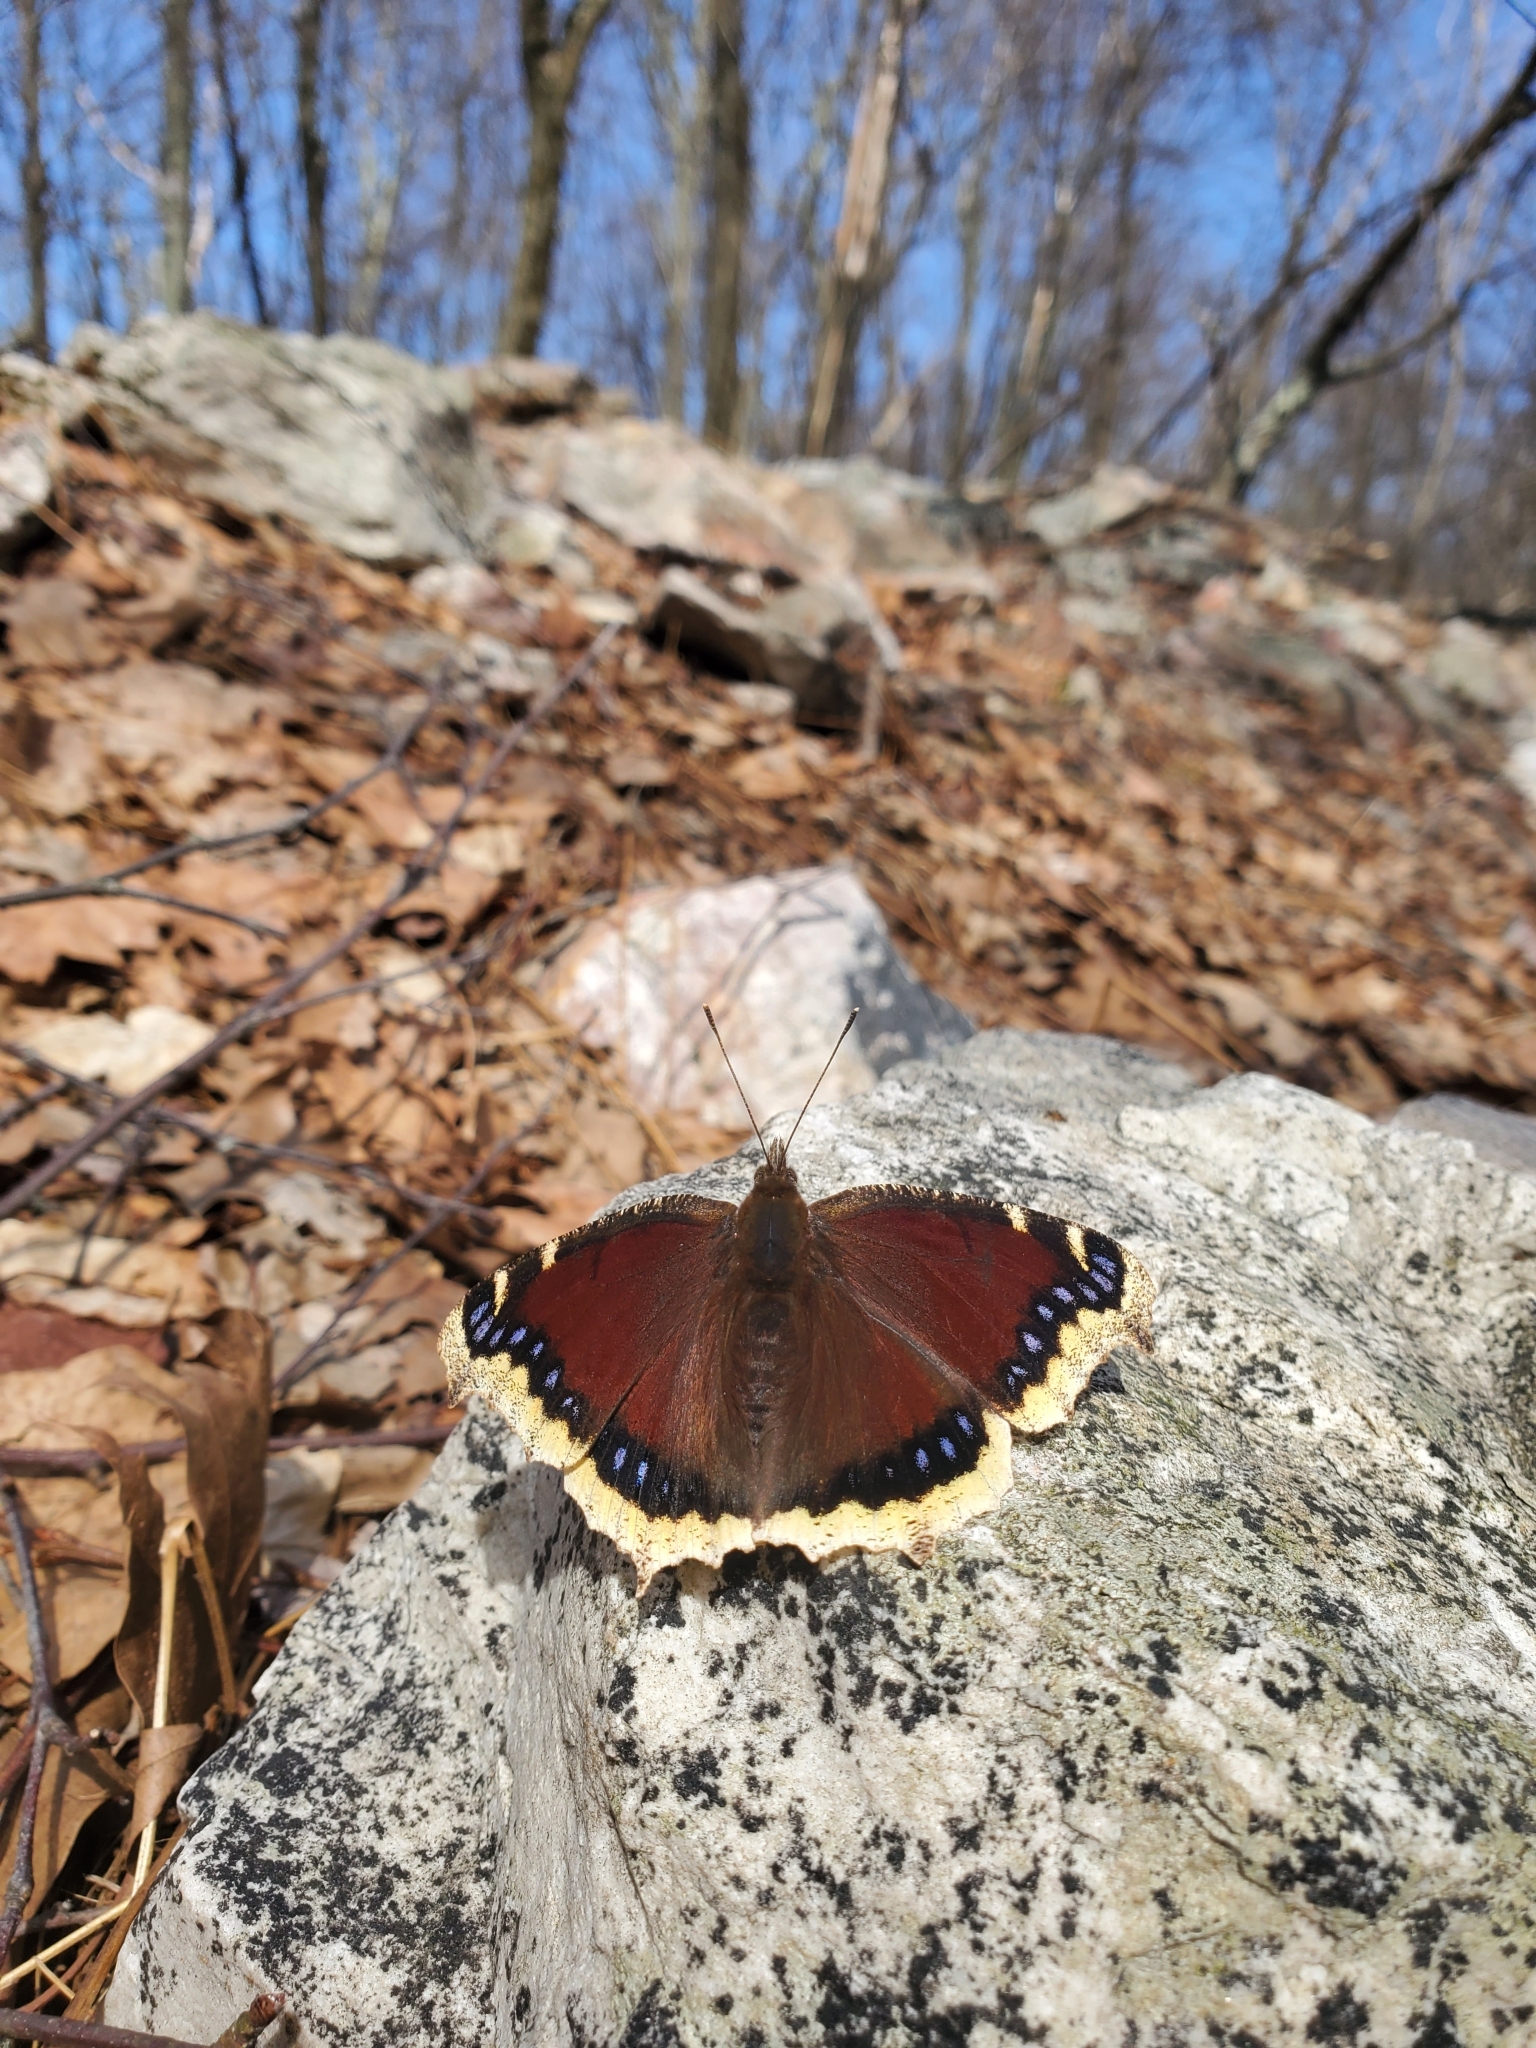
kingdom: Animalia
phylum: Arthropoda
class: Insecta
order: Lepidoptera
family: Nymphalidae
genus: Nymphalis
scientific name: Nymphalis antiopa
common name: Camberwell beauty
